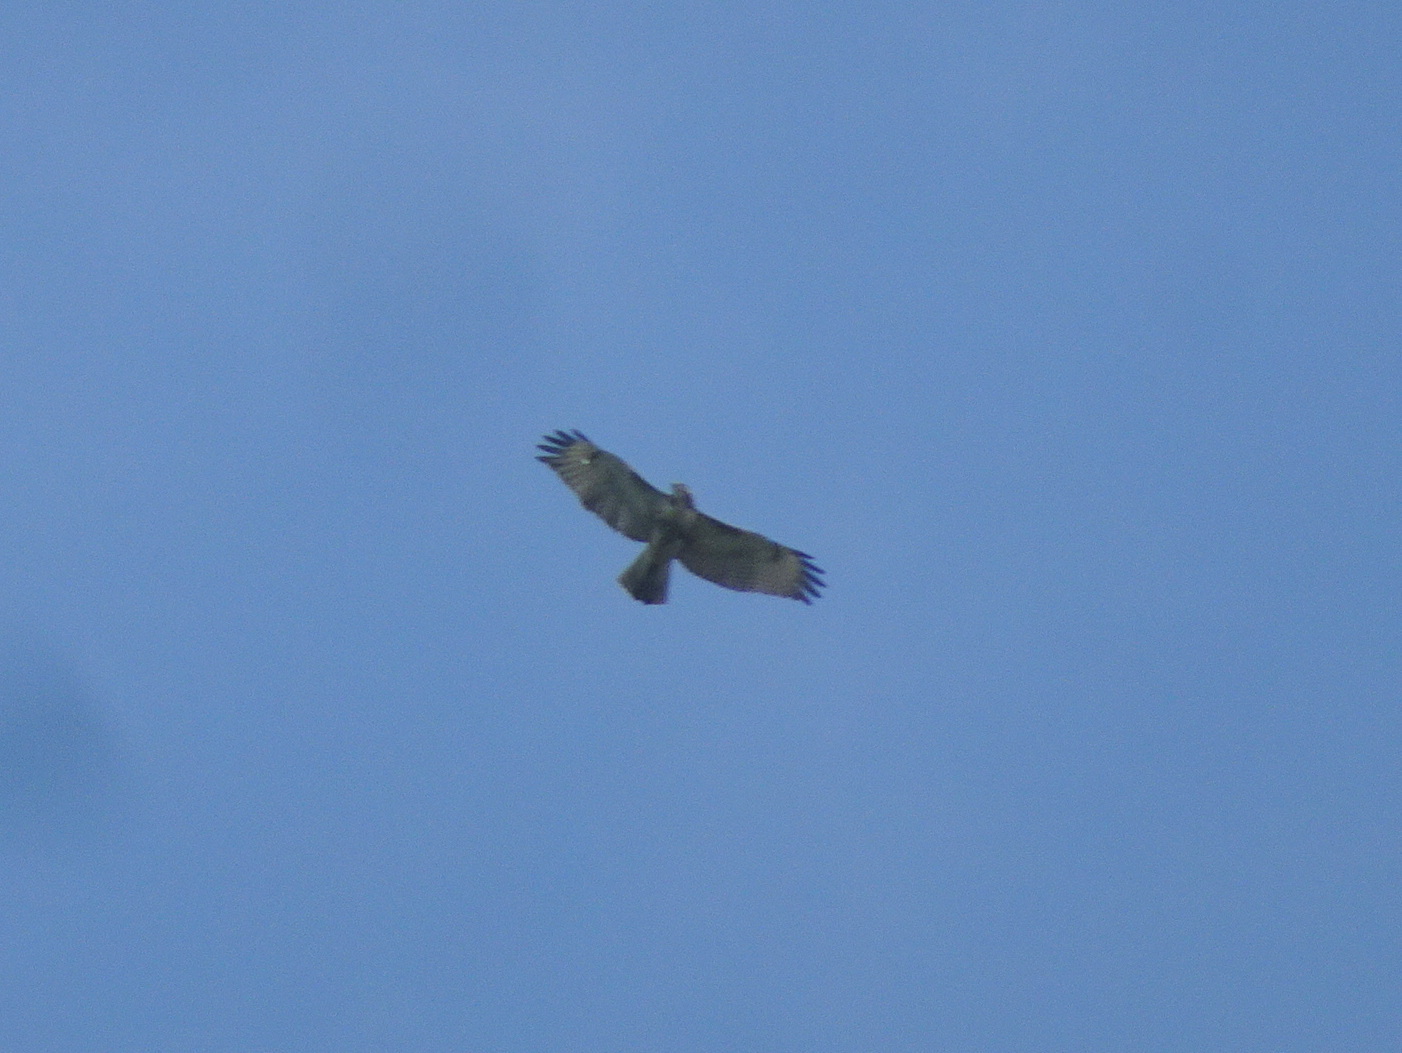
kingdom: Animalia
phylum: Chordata
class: Aves
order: Accipitriformes
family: Accipitridae
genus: Buteo
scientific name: Buteo jamaicensis
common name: Red-tailed hawk
